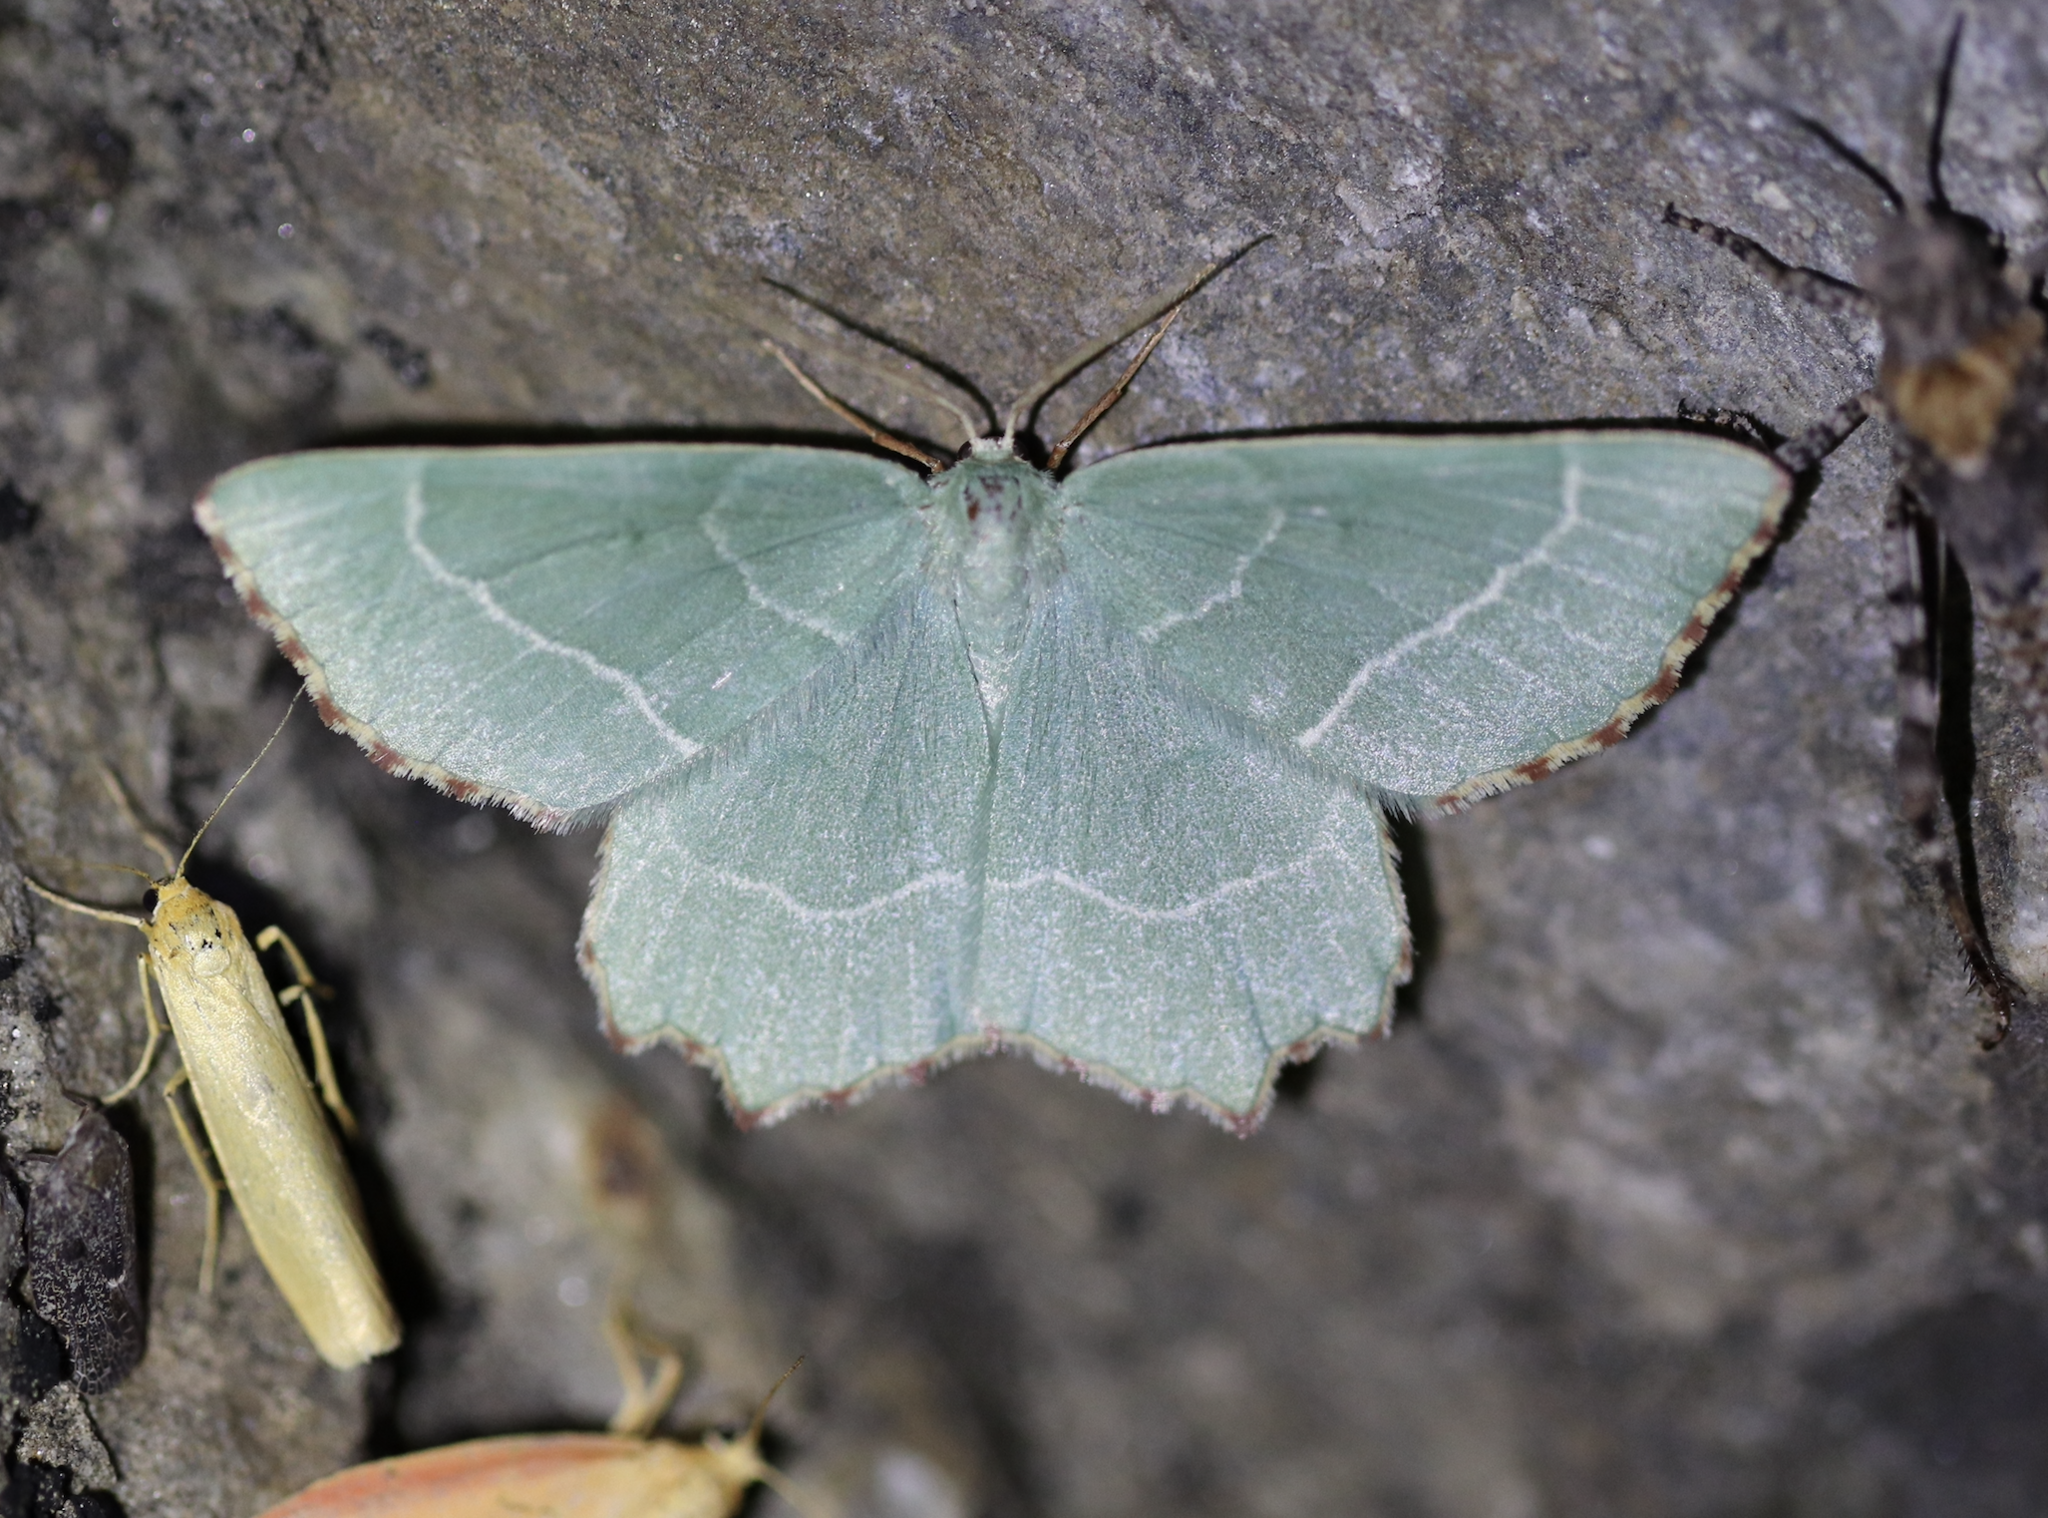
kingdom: Animalia
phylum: Arthropoda
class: Insecta
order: Lepidoptera
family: Geometridae
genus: Thalera
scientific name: Thalera fimbrialis
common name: Sussex emerald
